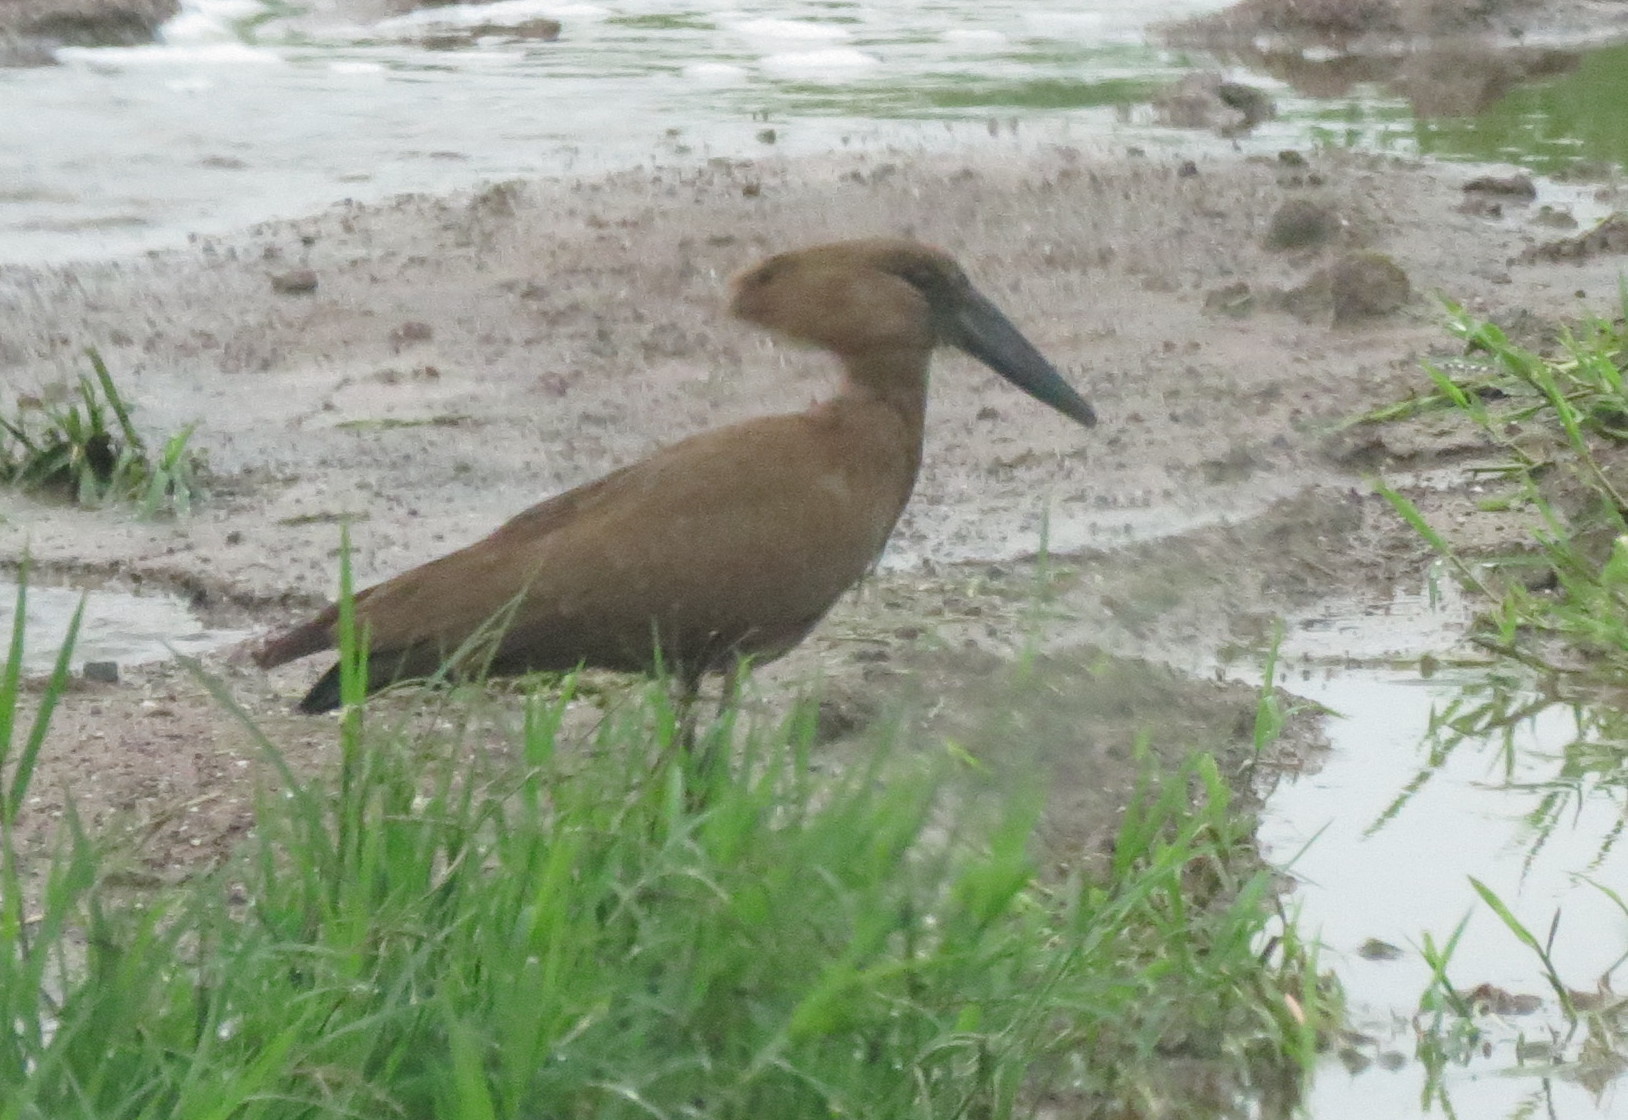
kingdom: Animalia
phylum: Chordata
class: Aves
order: Pelecaniformes
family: Scopidae
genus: Scopus
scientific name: Scopus umbretta
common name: Hamerkop
